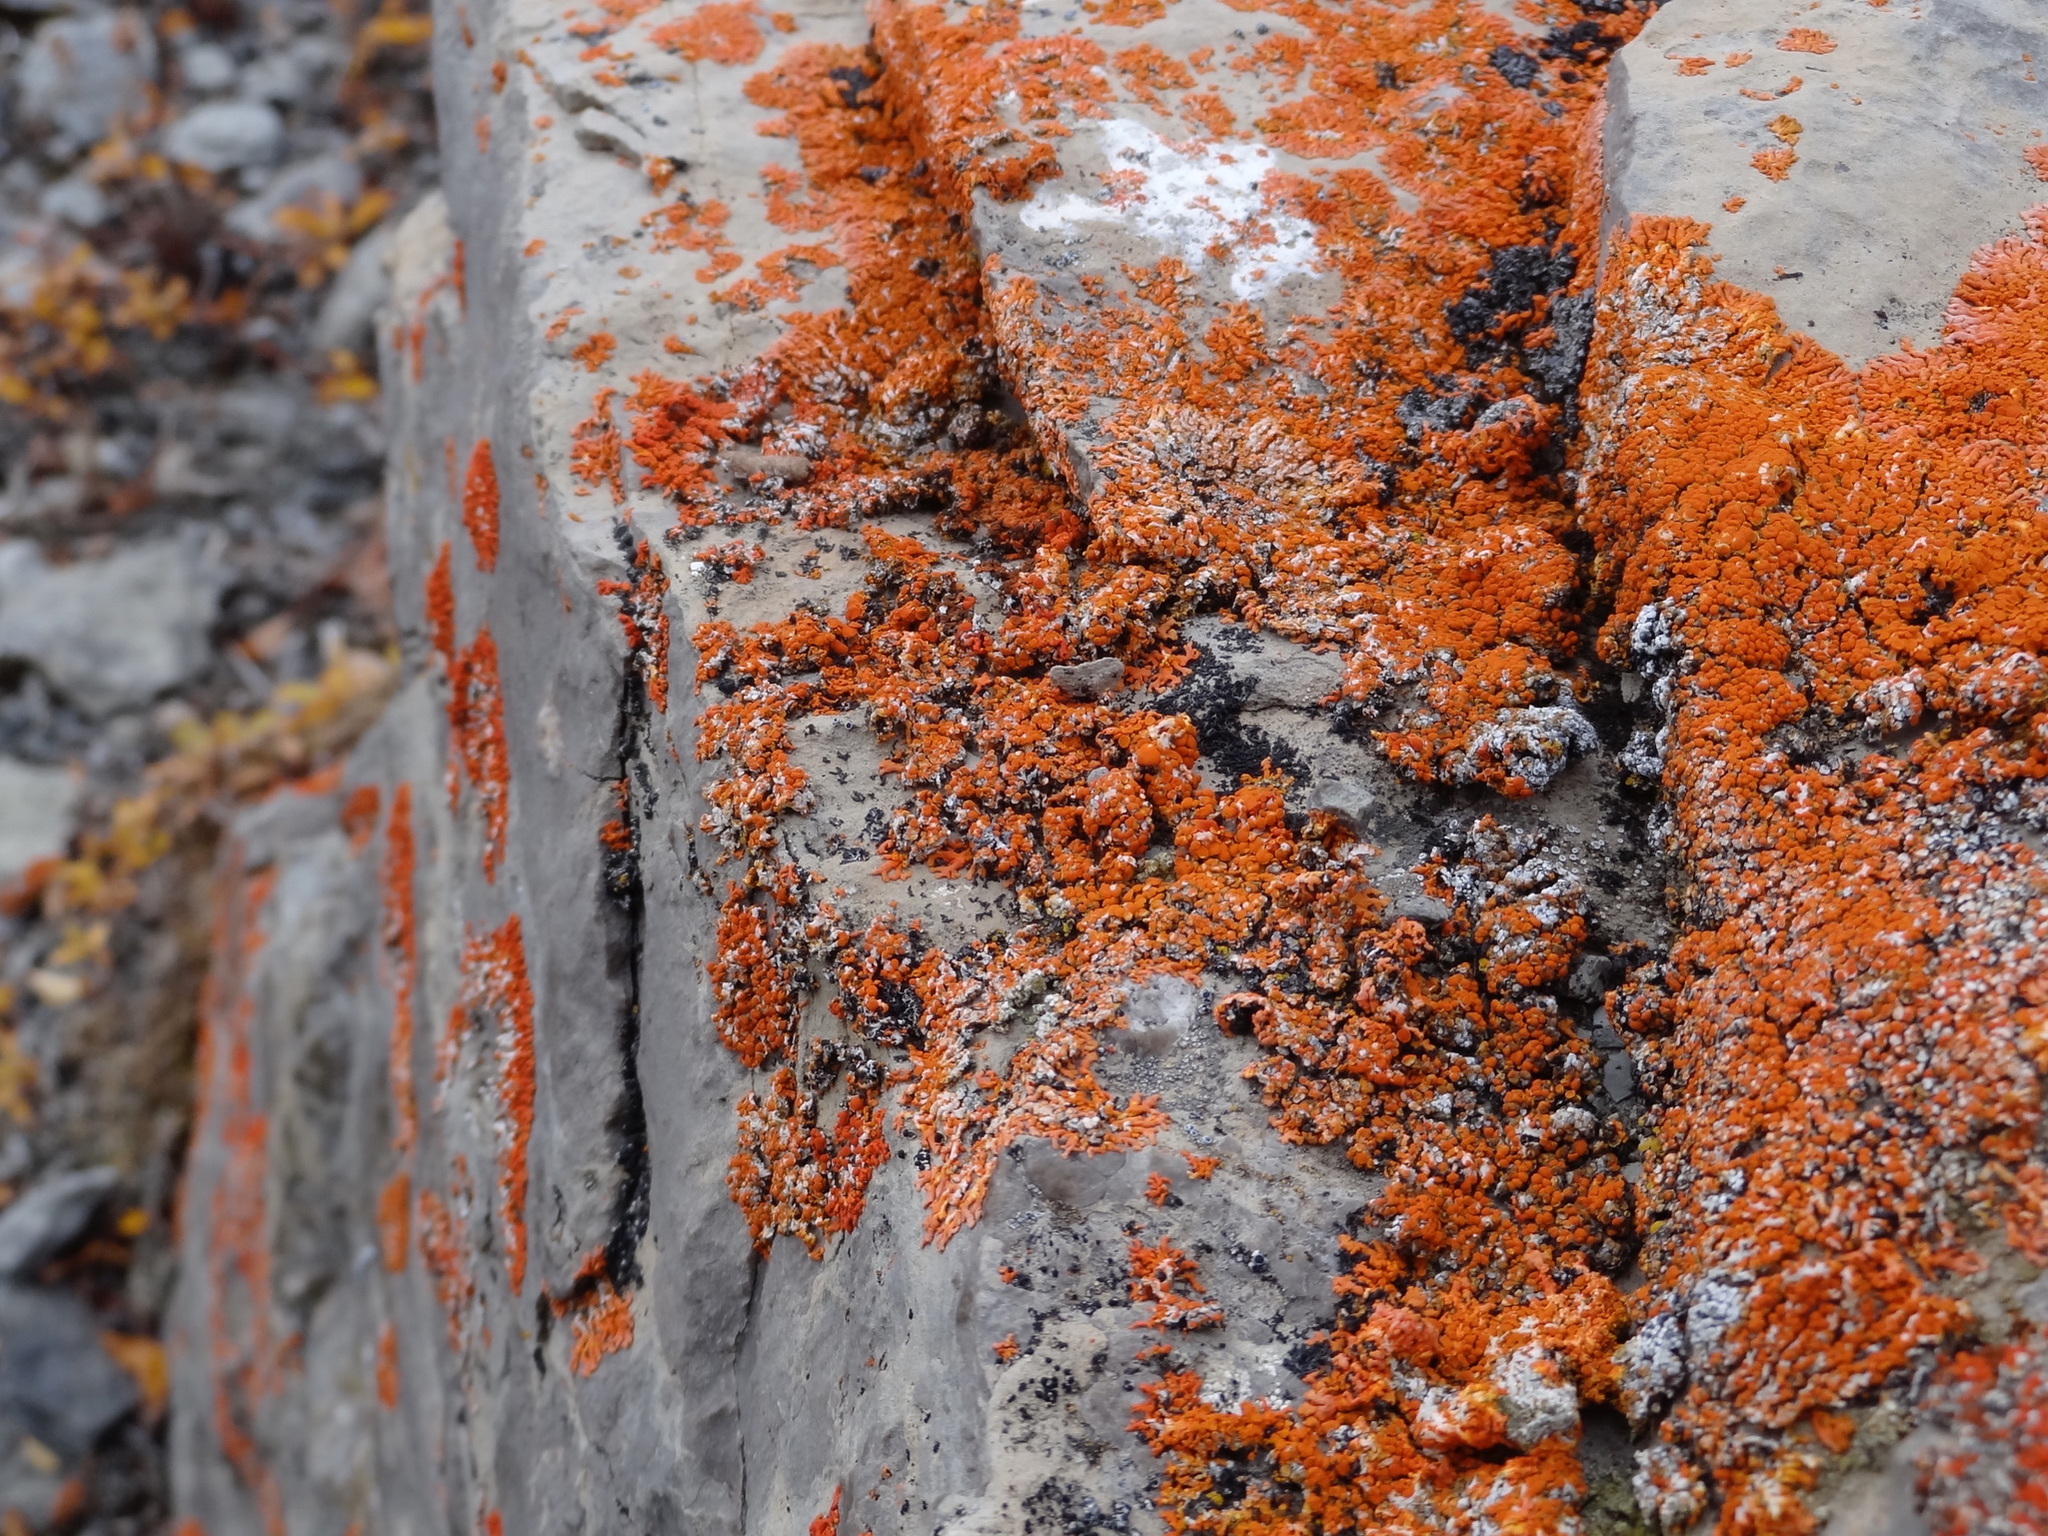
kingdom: Fungi
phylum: Ascomycota
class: Lecanoromycetes
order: Teloschistales
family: Teloschistaceae
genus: Xanthoria
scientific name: Xanthoria elegans
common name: Elegant sunburst lichen
